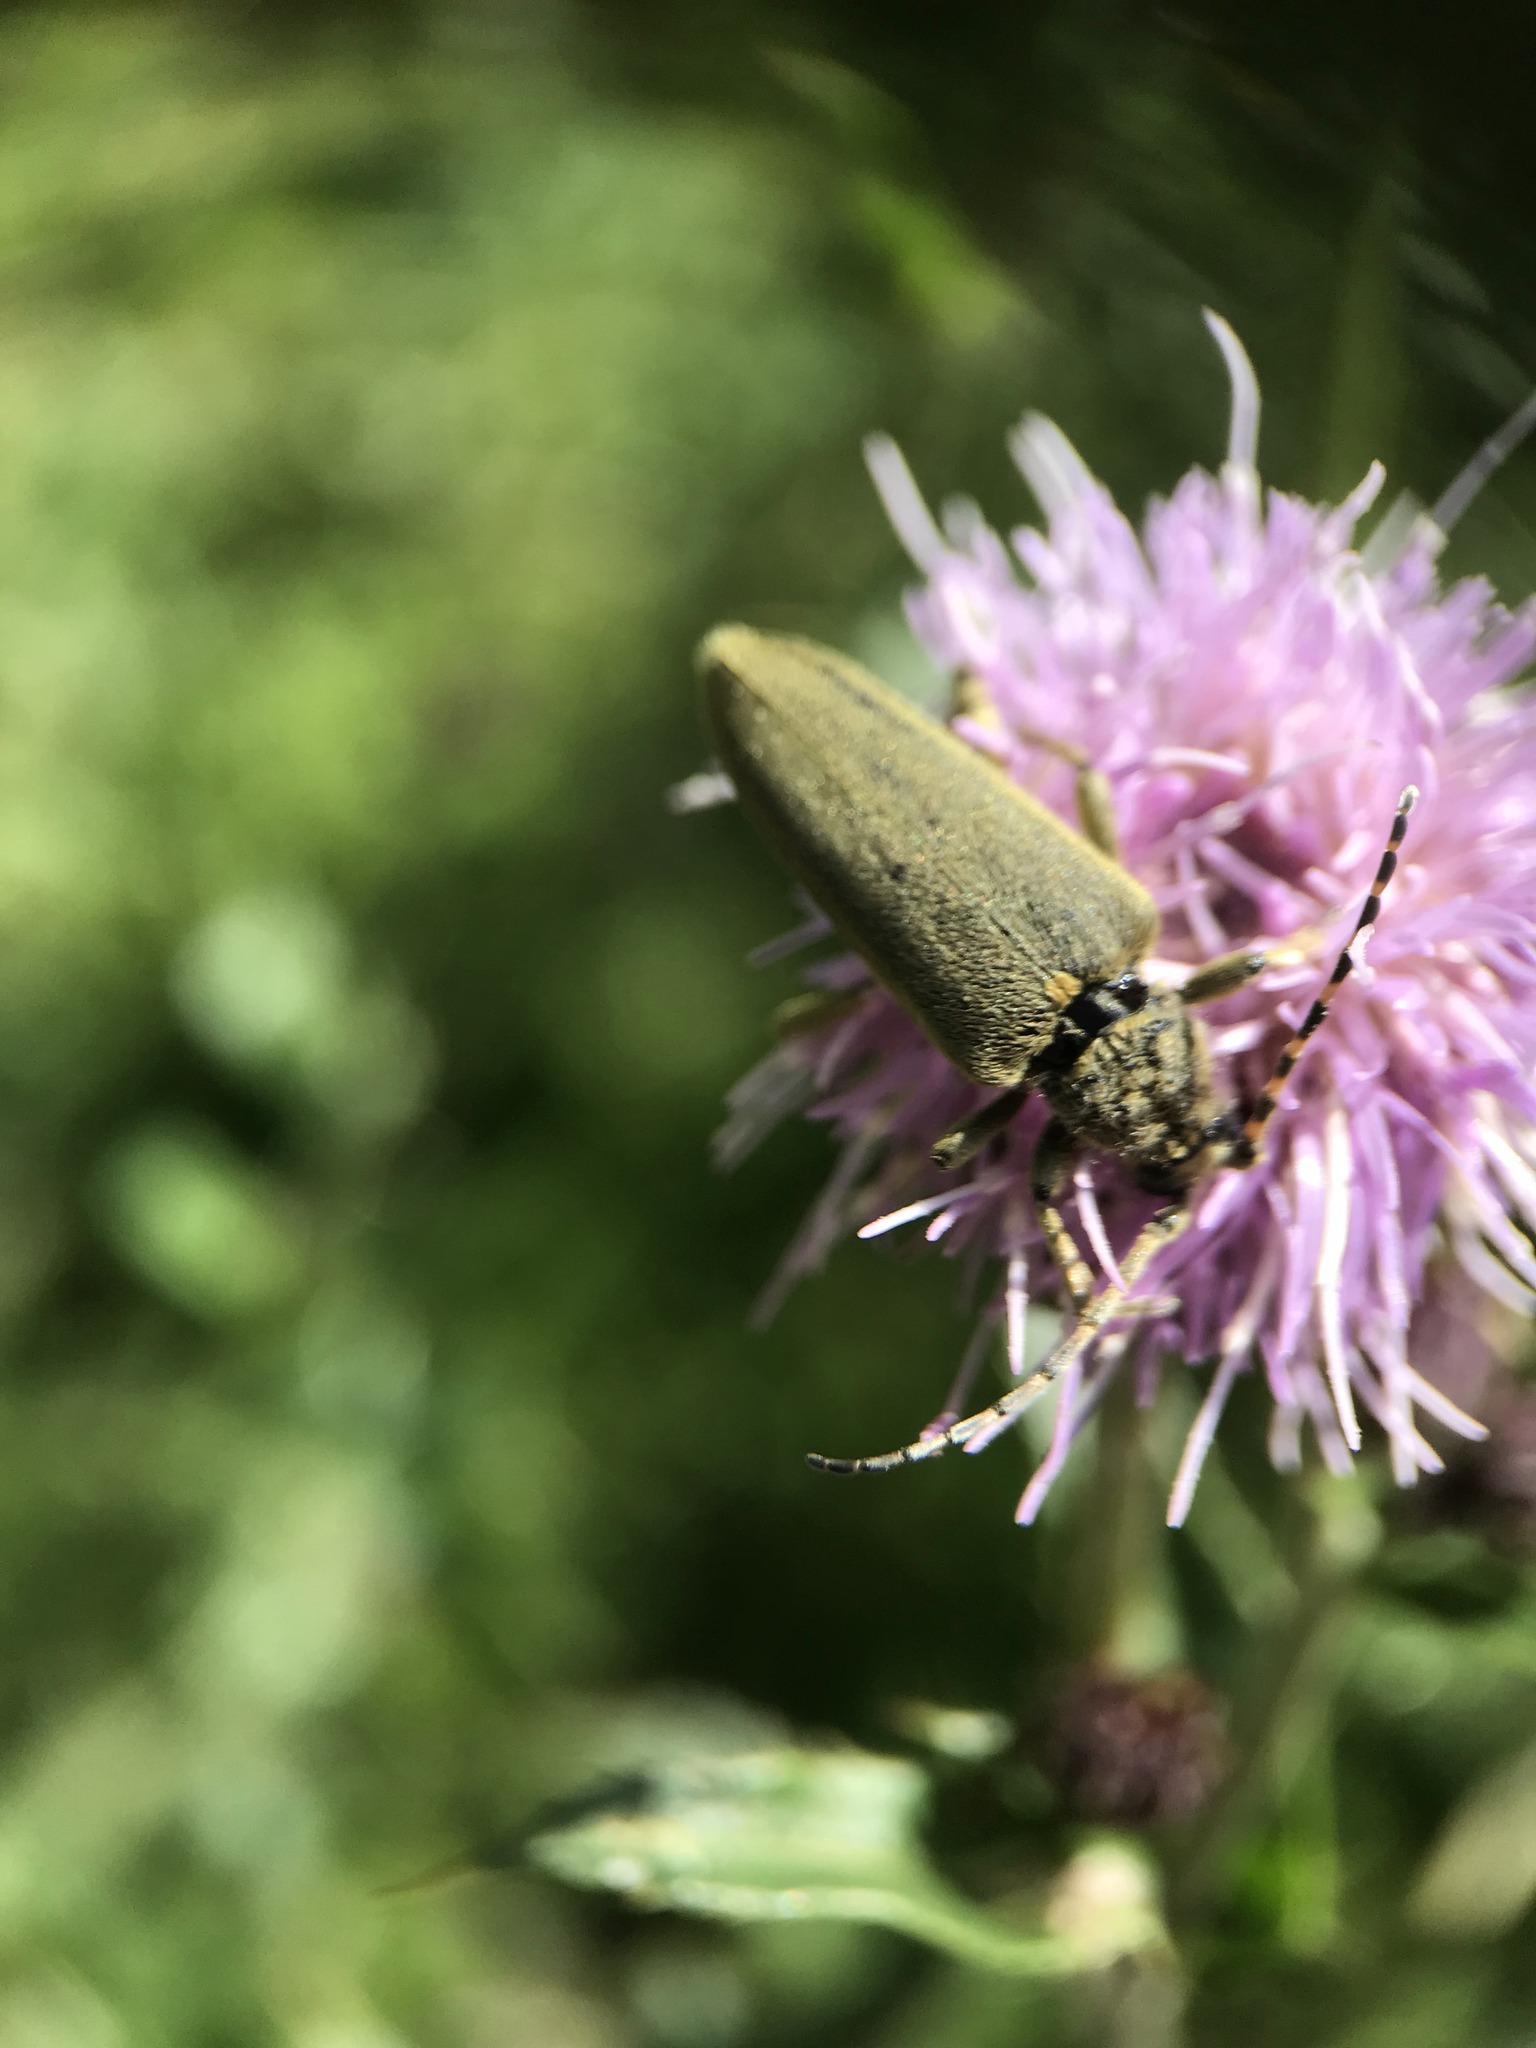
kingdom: Animalia
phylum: Arthropoda
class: Insecta
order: Coleoptera
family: Cerambycidae
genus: Lepturobosca
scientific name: Lepturobosca virens
